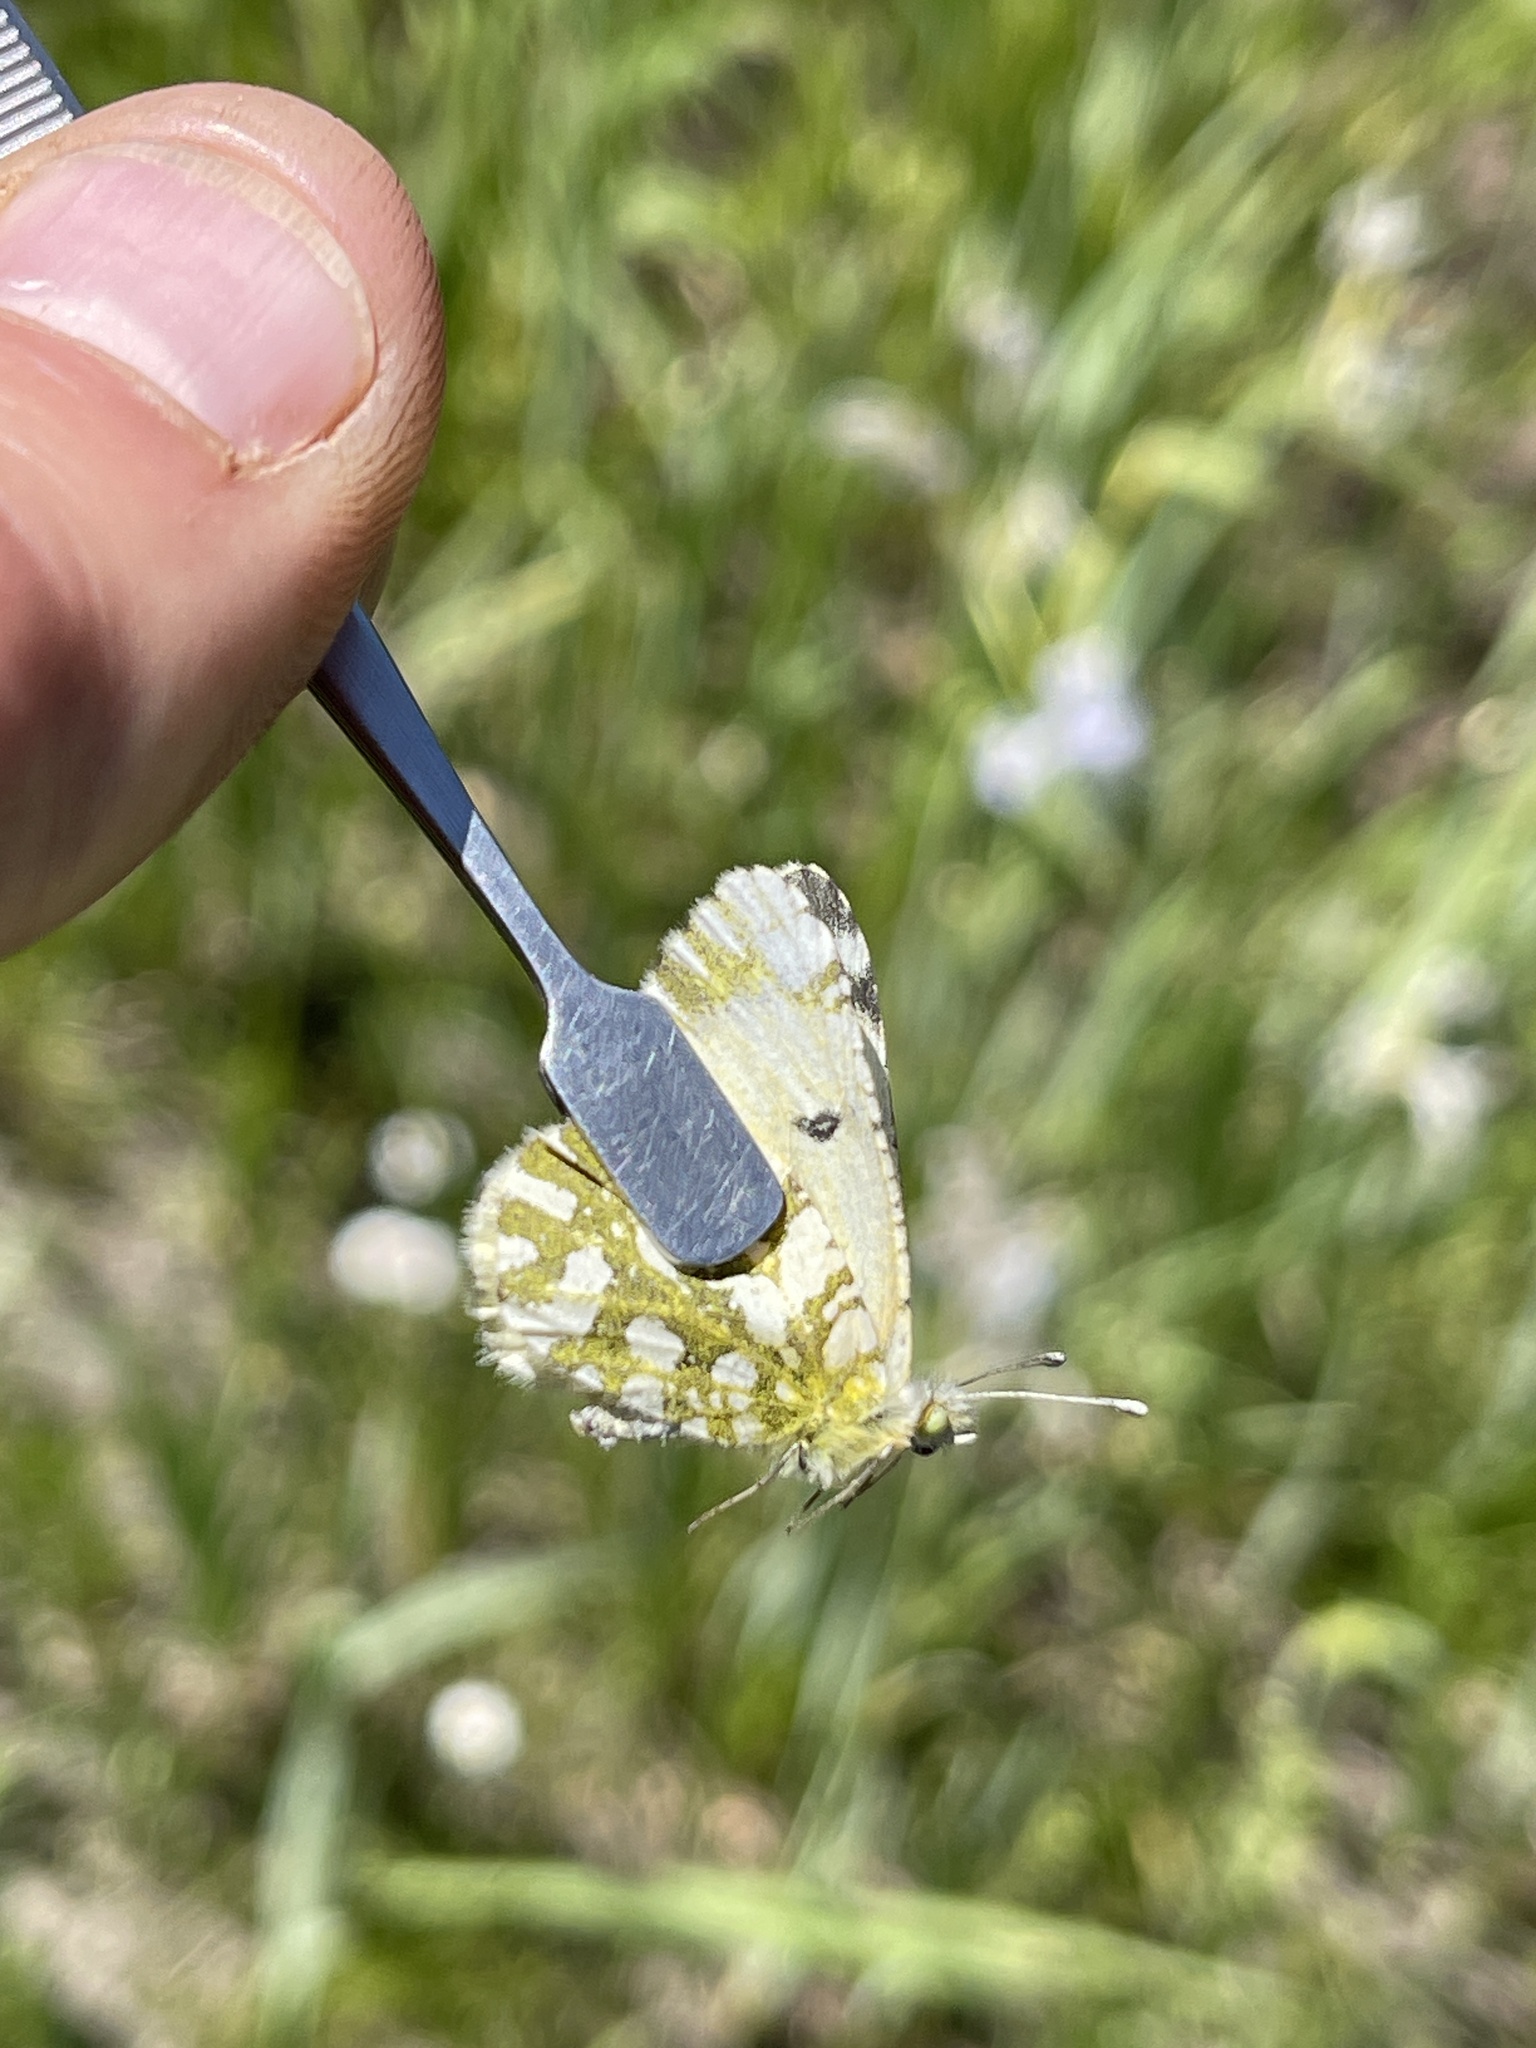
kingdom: Animalia
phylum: Arthropoda
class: Insecta
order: Lepidoptera
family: Pieridae
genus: Euchloe
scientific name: Euchloe ausonides
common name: Creamy marblewing
